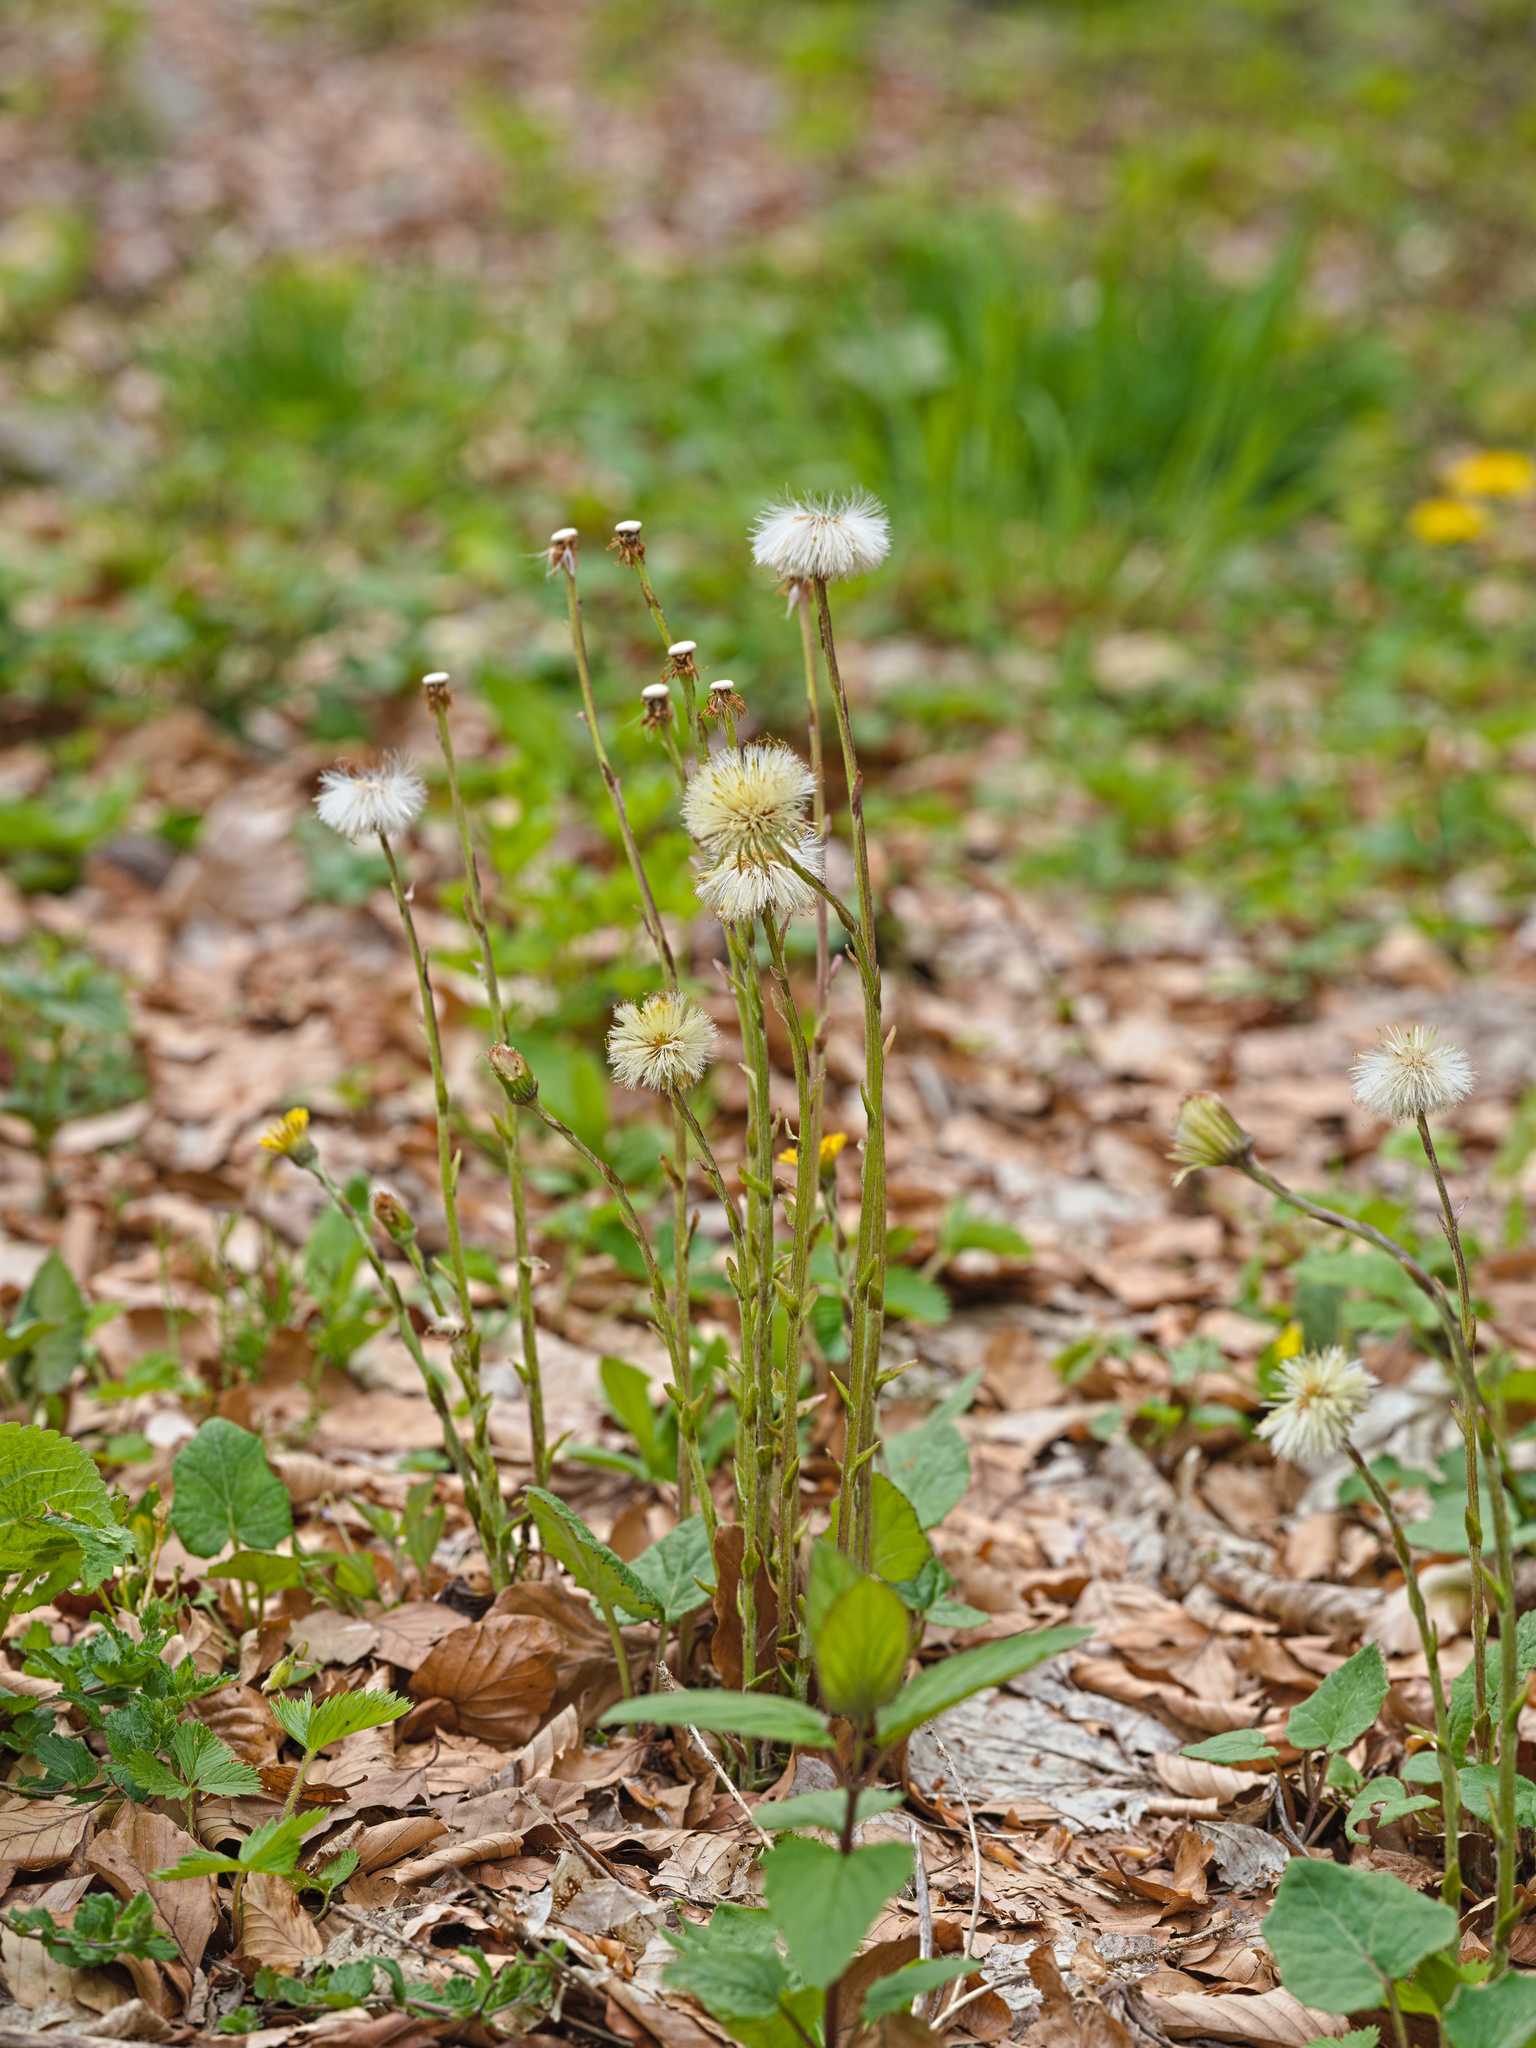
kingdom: Plantae
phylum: Tracheophyta
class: Magnoliopsida
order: Asterales
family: Asteraceae
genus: Tussilago
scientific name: Tussilago farfara
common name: Coltsfoot
